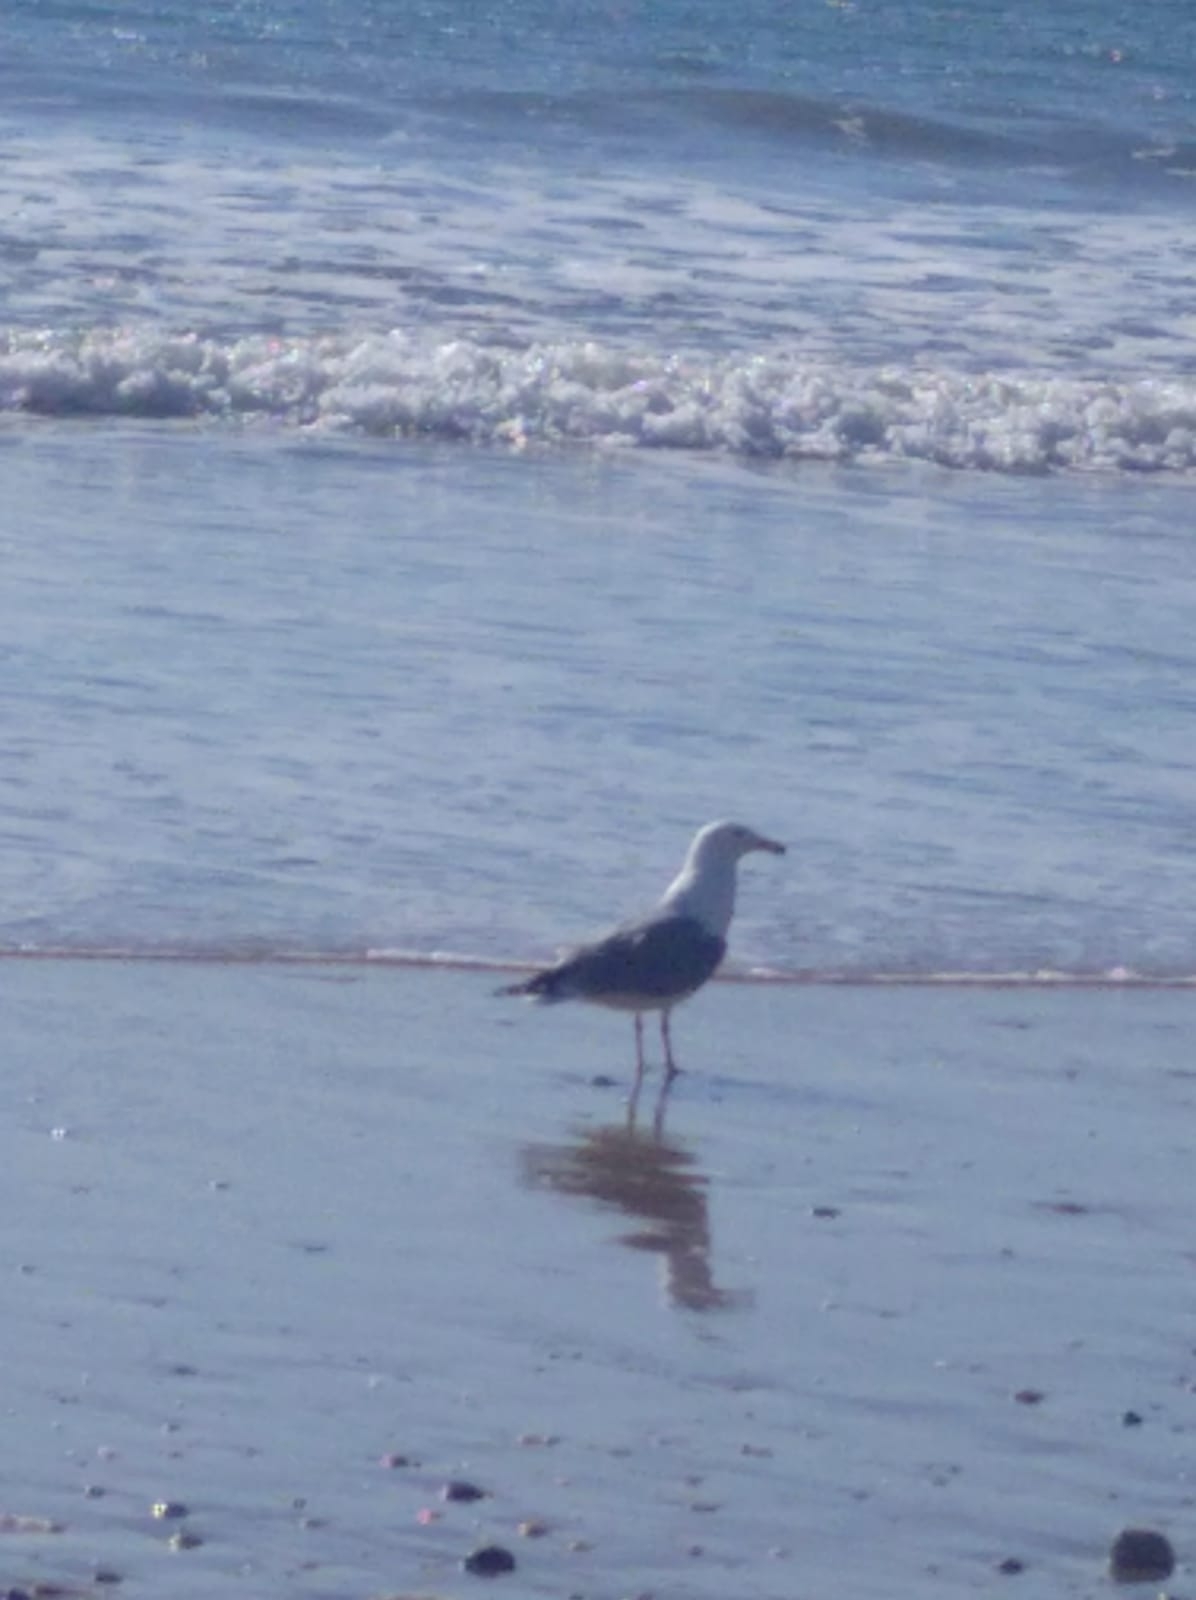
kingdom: Animalia
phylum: Chordata
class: Aves
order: Charadriiformes
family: Laridae
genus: Larus
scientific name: Larus michahellis
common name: Yellow-legged gull
